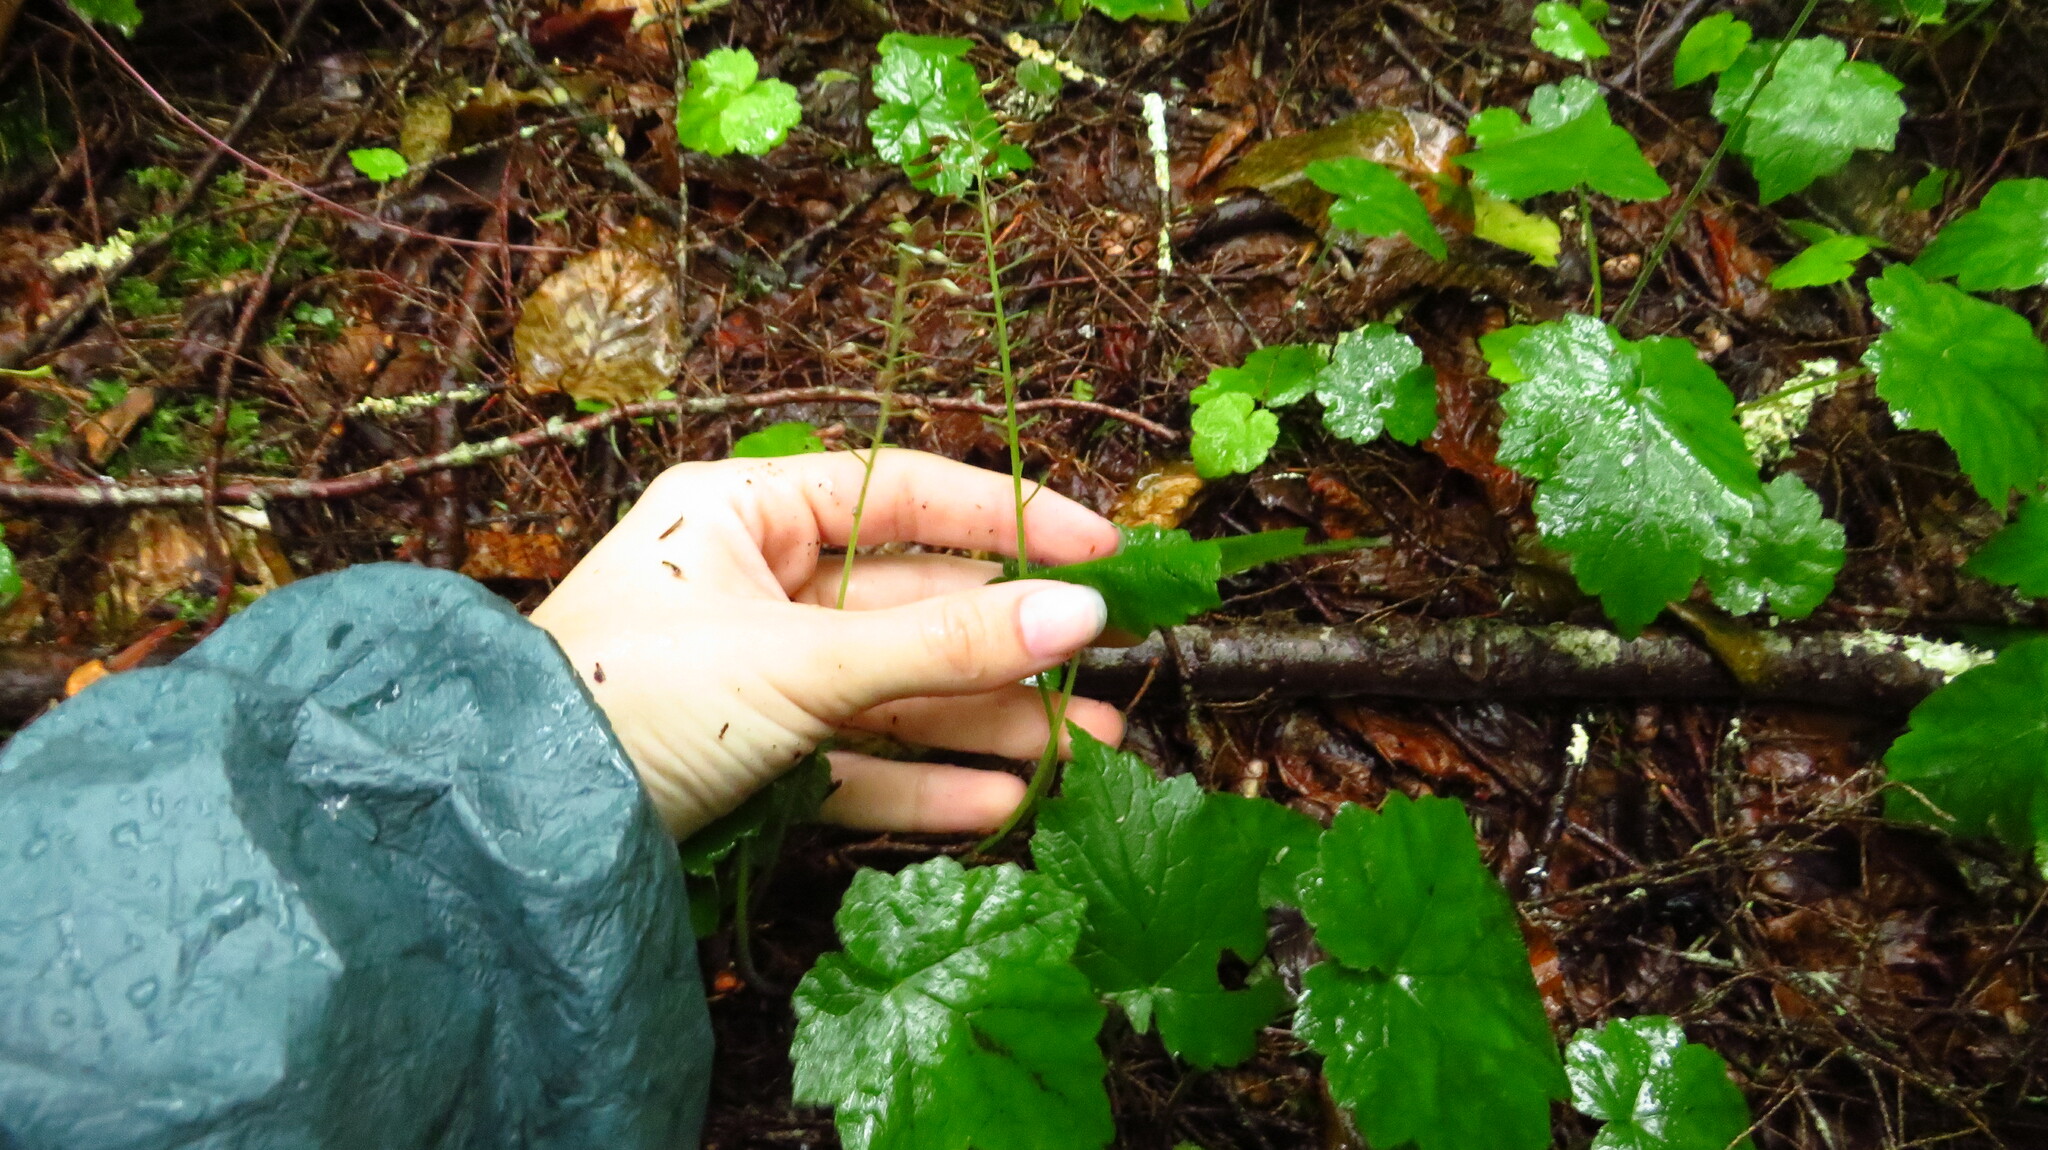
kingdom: Plantae
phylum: Tracheophyta
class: Magnoliopsida
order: Saxifragales
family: Saxifragaceae
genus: Tiarella
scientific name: Tiarella stolonifera
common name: Stoloniferous foamflower
